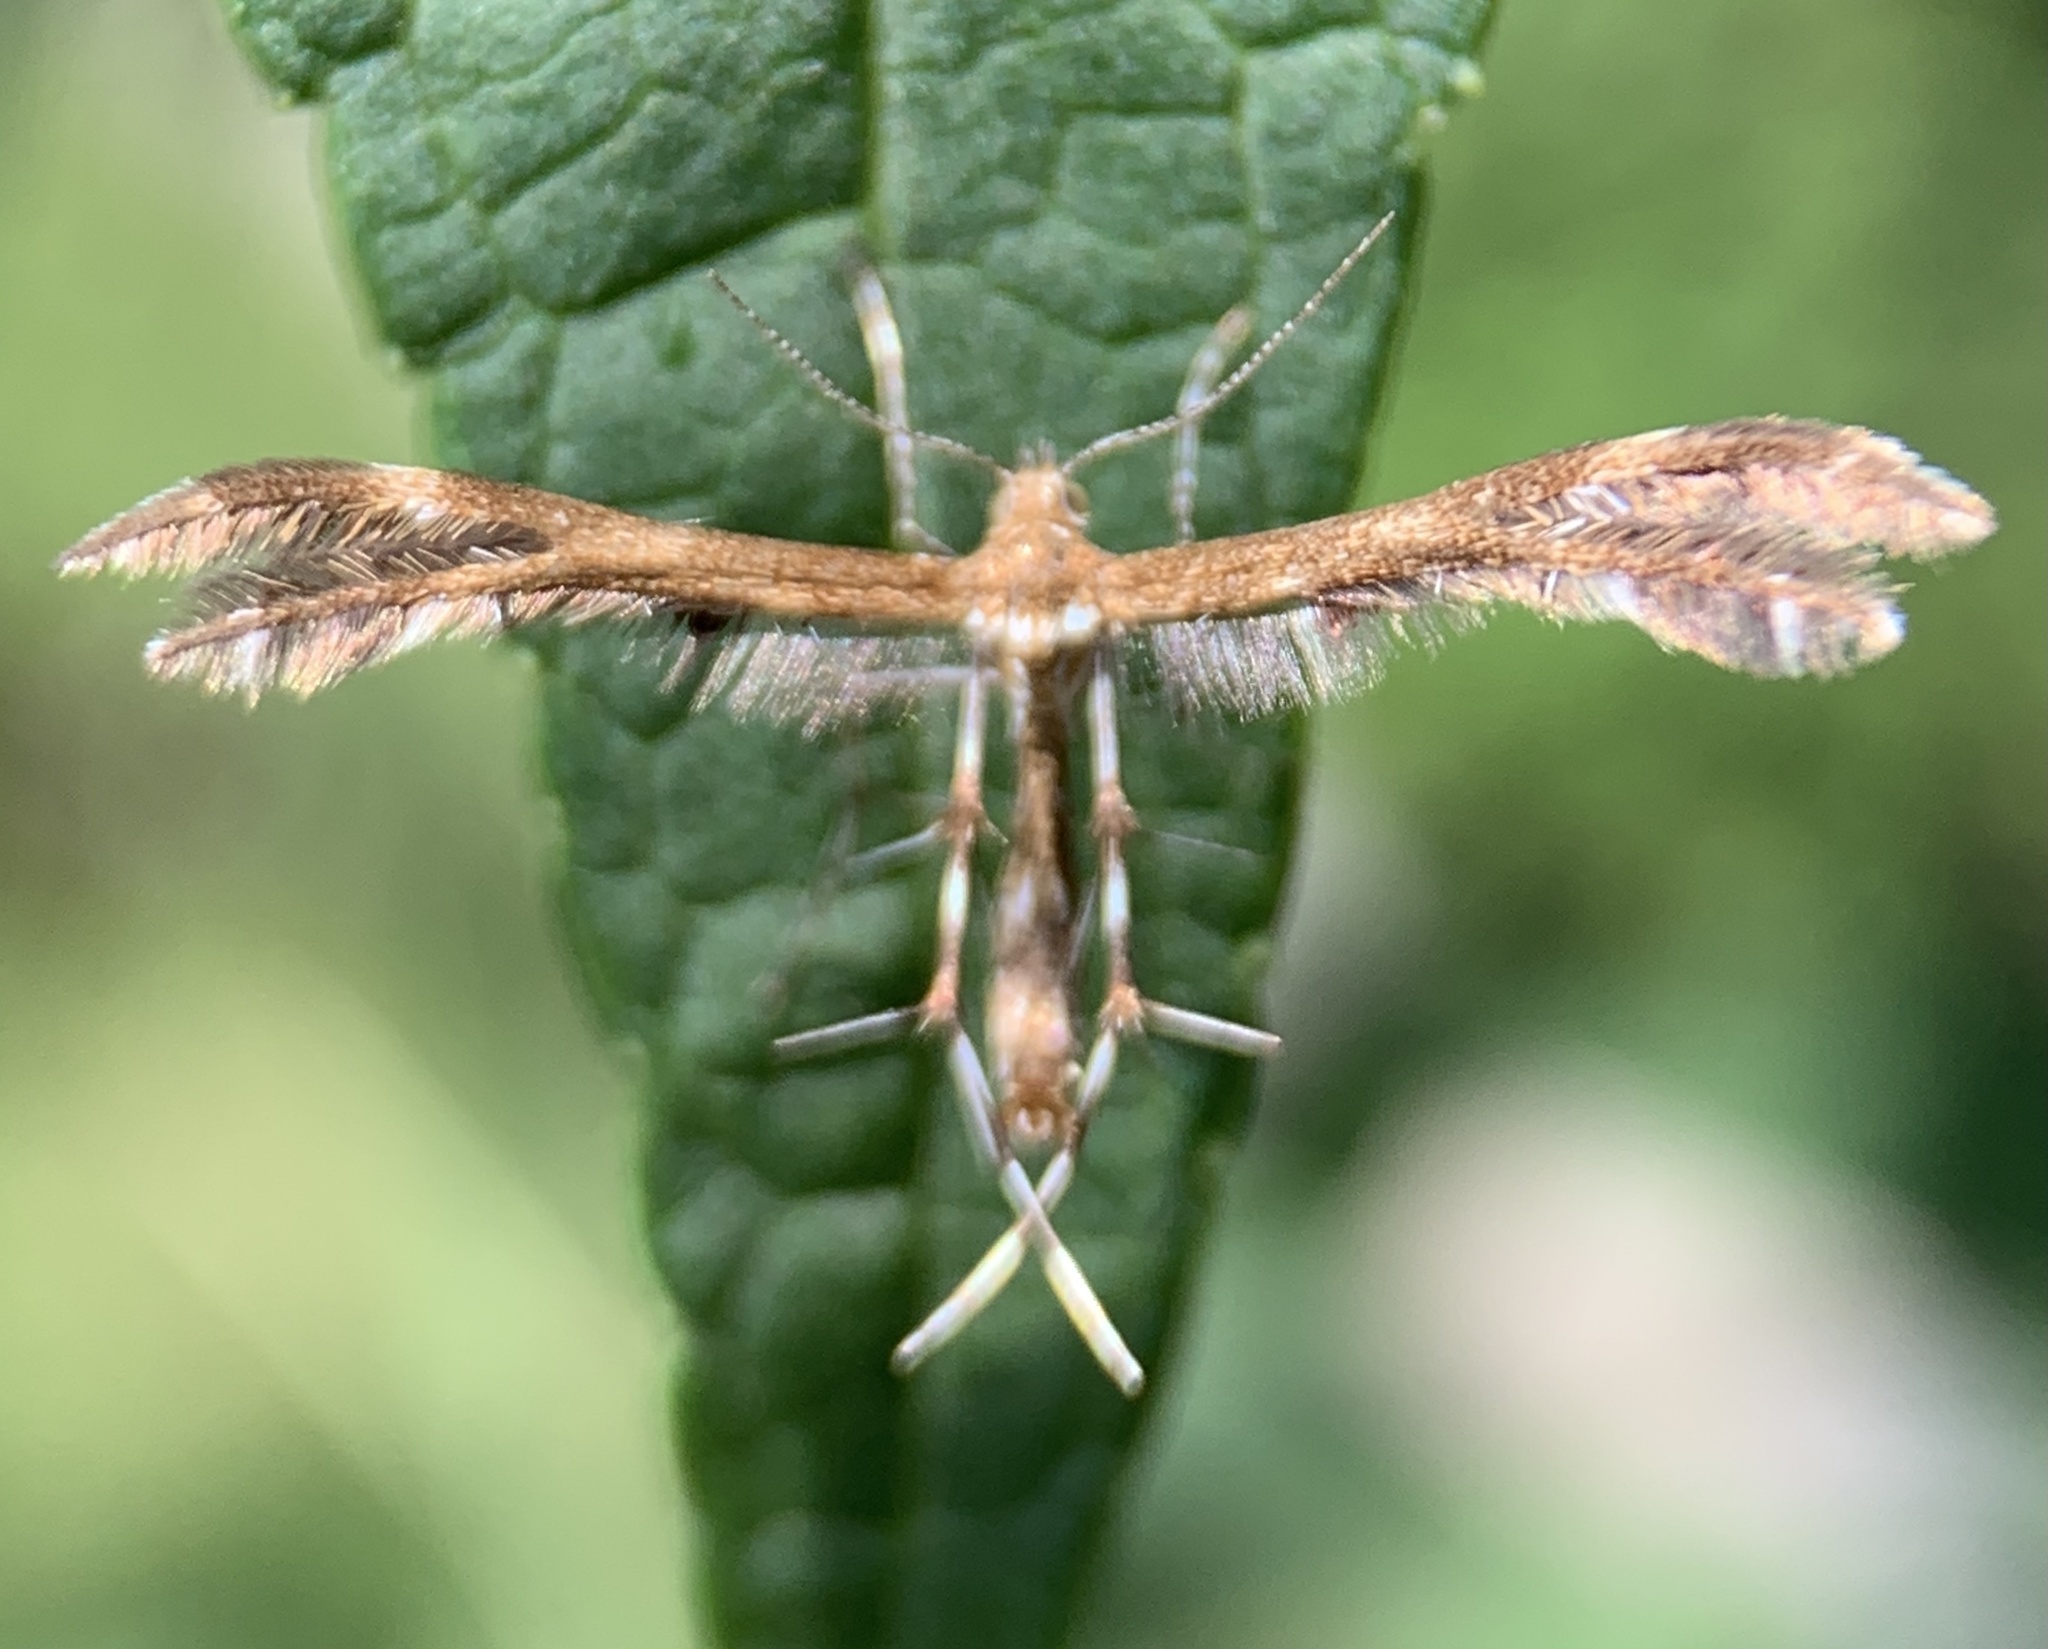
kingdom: Animalia
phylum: Arthropoda
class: Insecta
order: Lepidoptera
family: Pterophoridae
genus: Dejongia
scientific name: Dejongia lobidactylus
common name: Lobed plume moth
